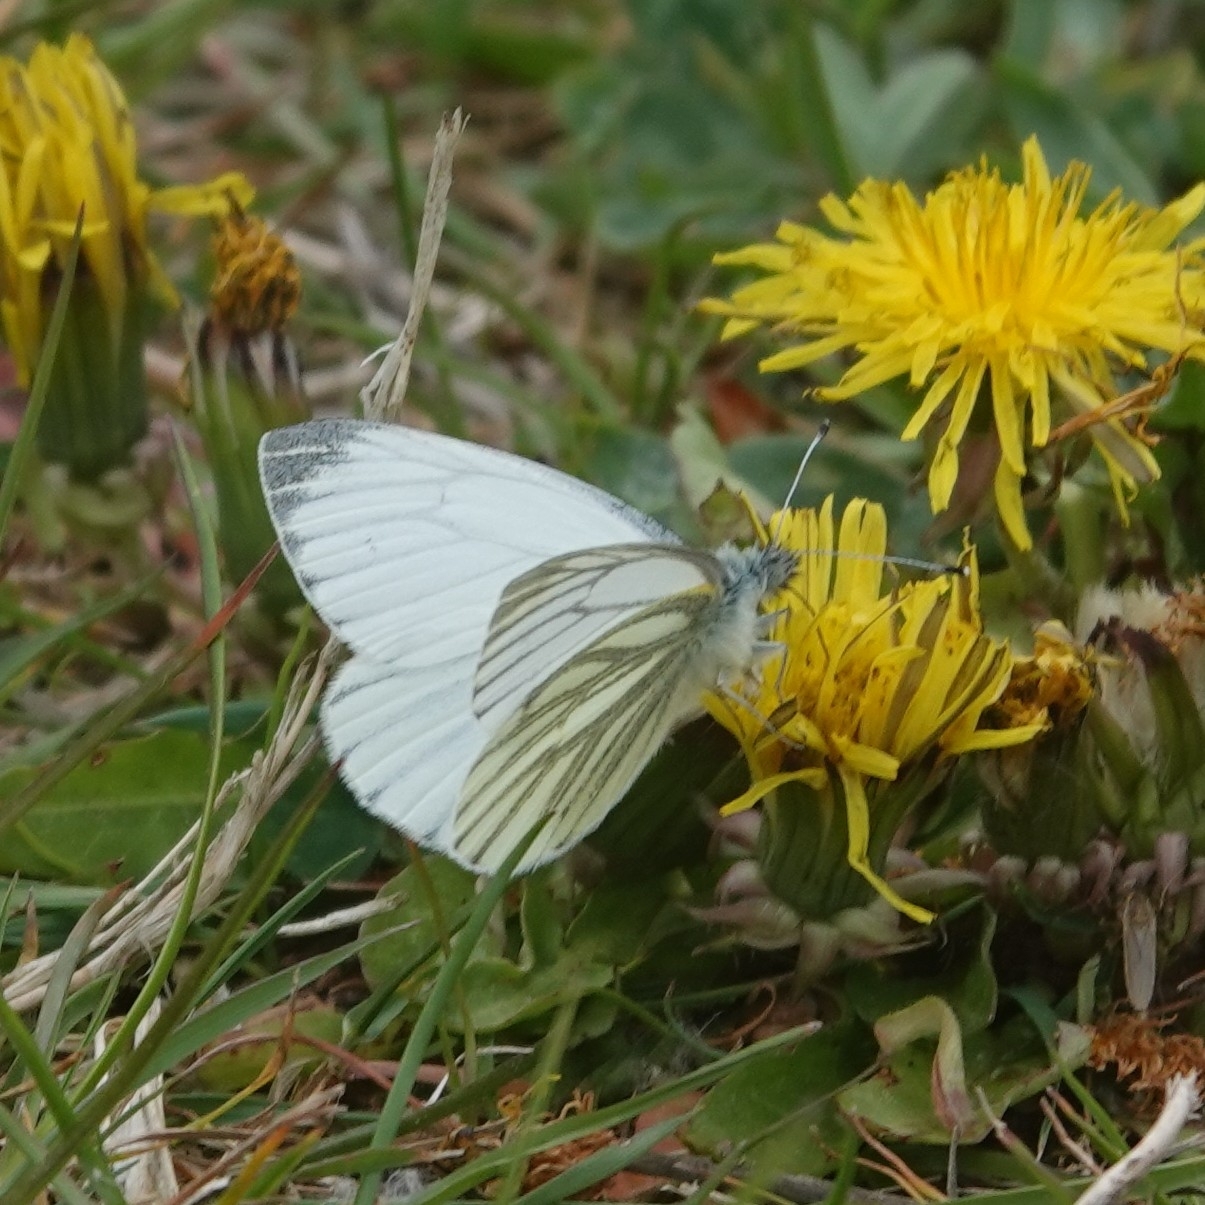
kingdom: Animalia
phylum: Arthropoda
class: Insecta
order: Lepidoptera
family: Pieridae
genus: Pieris
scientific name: Pieris napi
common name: Green-veined white
